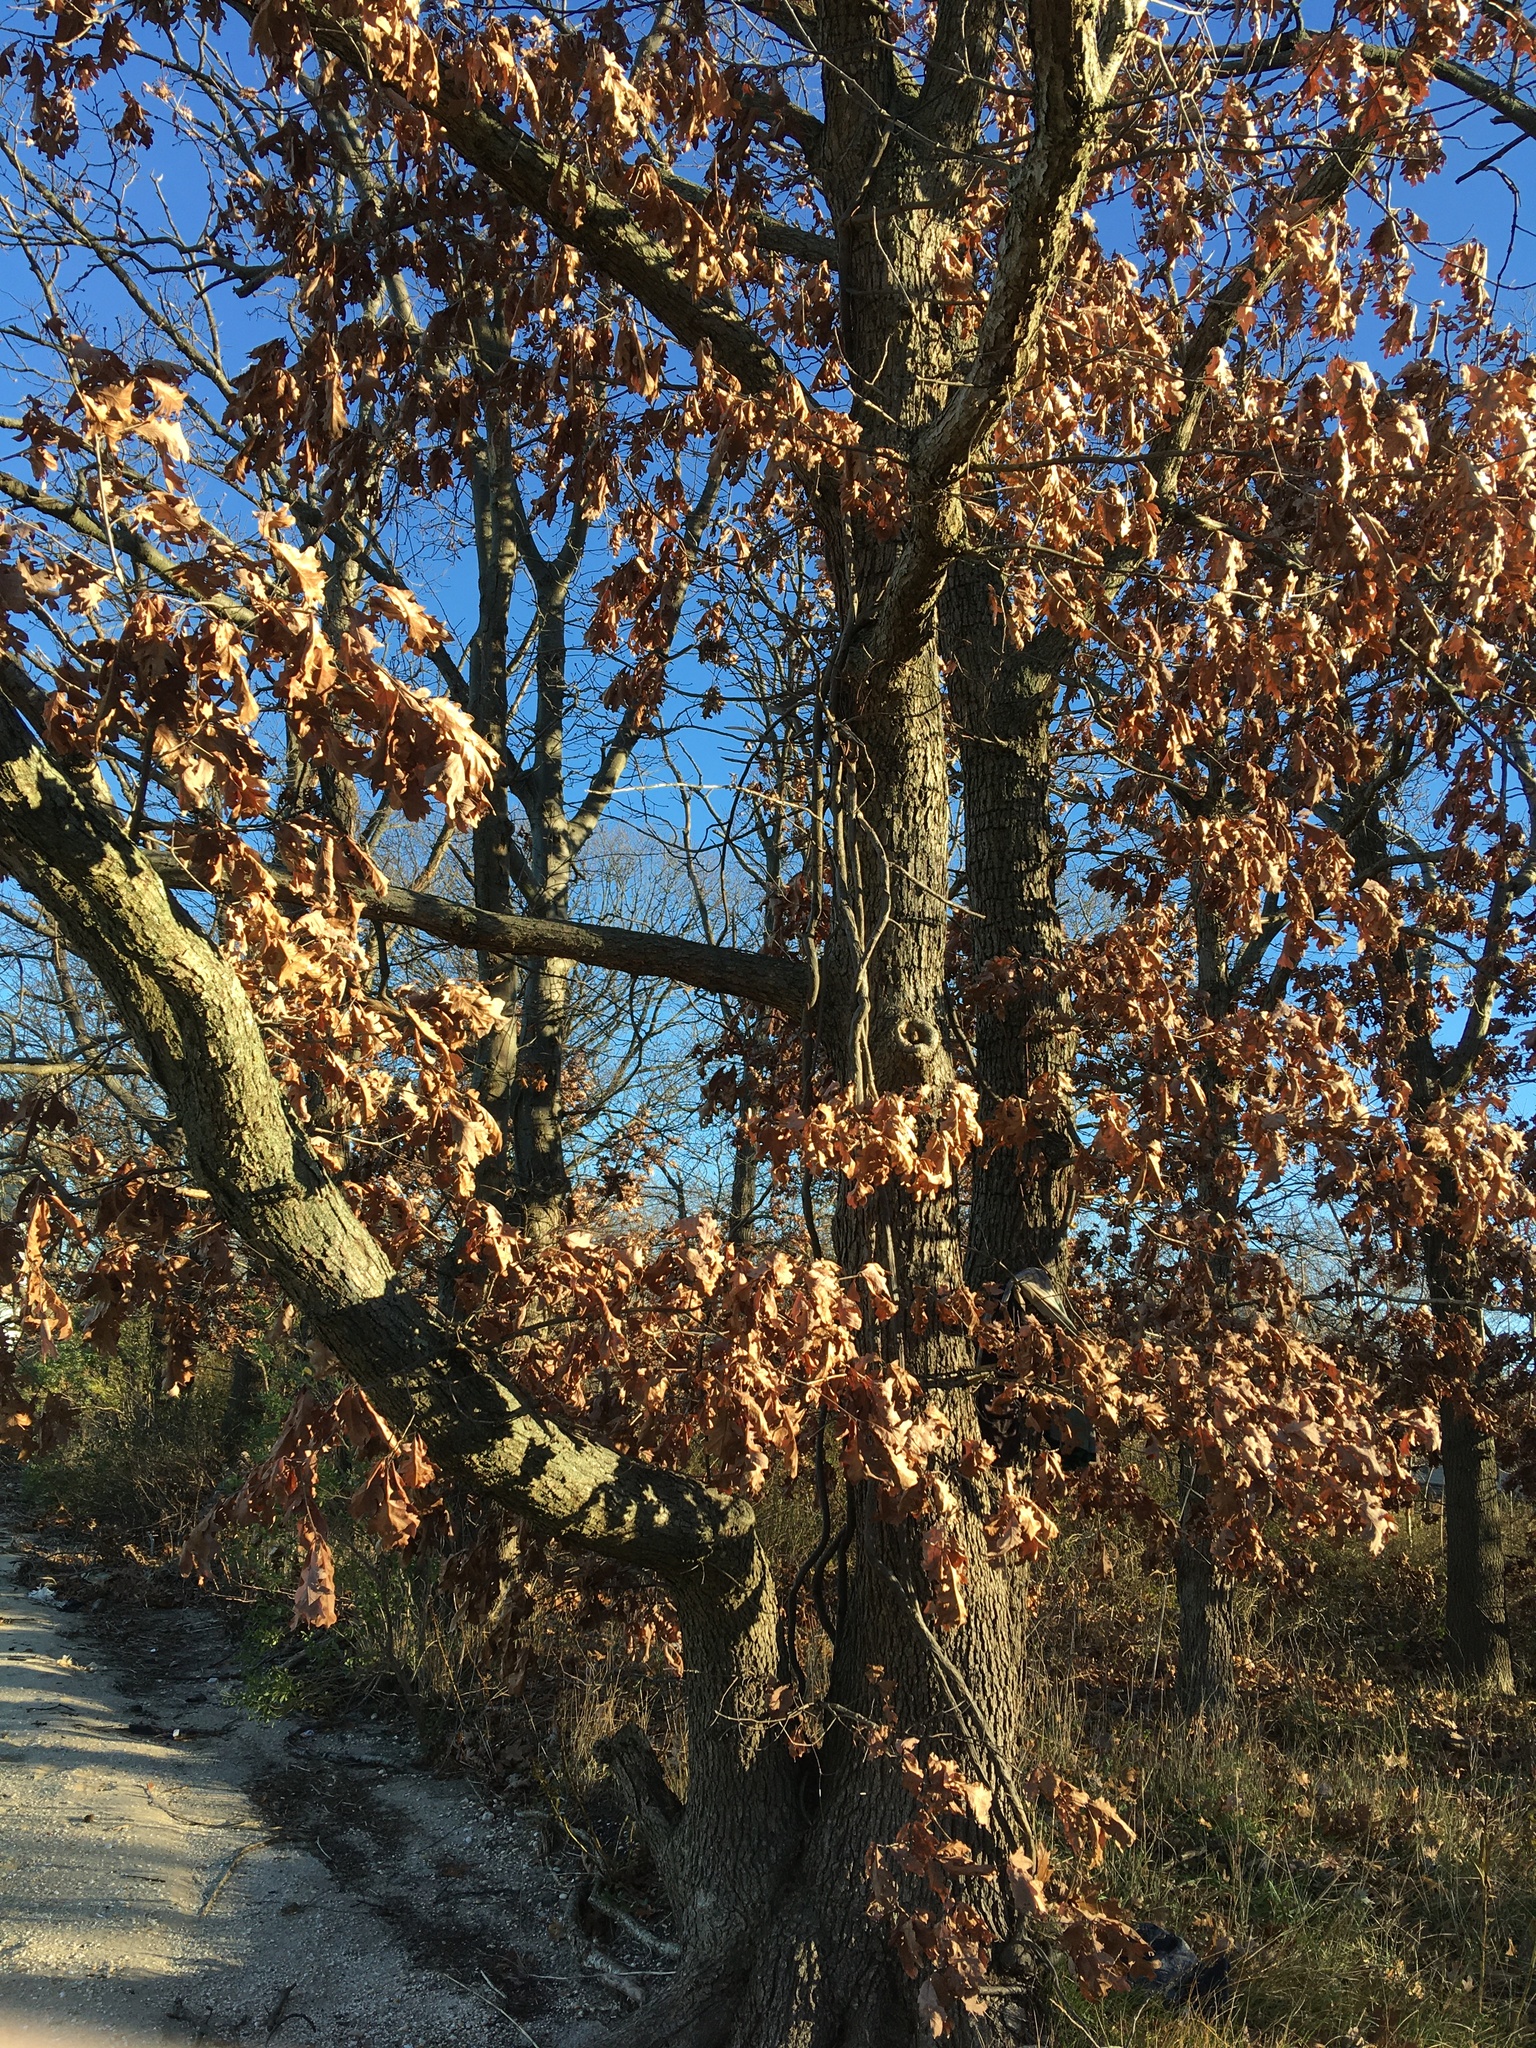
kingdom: Plantae
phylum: Tracheophyta
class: Magnoliopsida
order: Fagales
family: Fagaceae
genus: Quercus
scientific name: Quercus alba
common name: White oak
